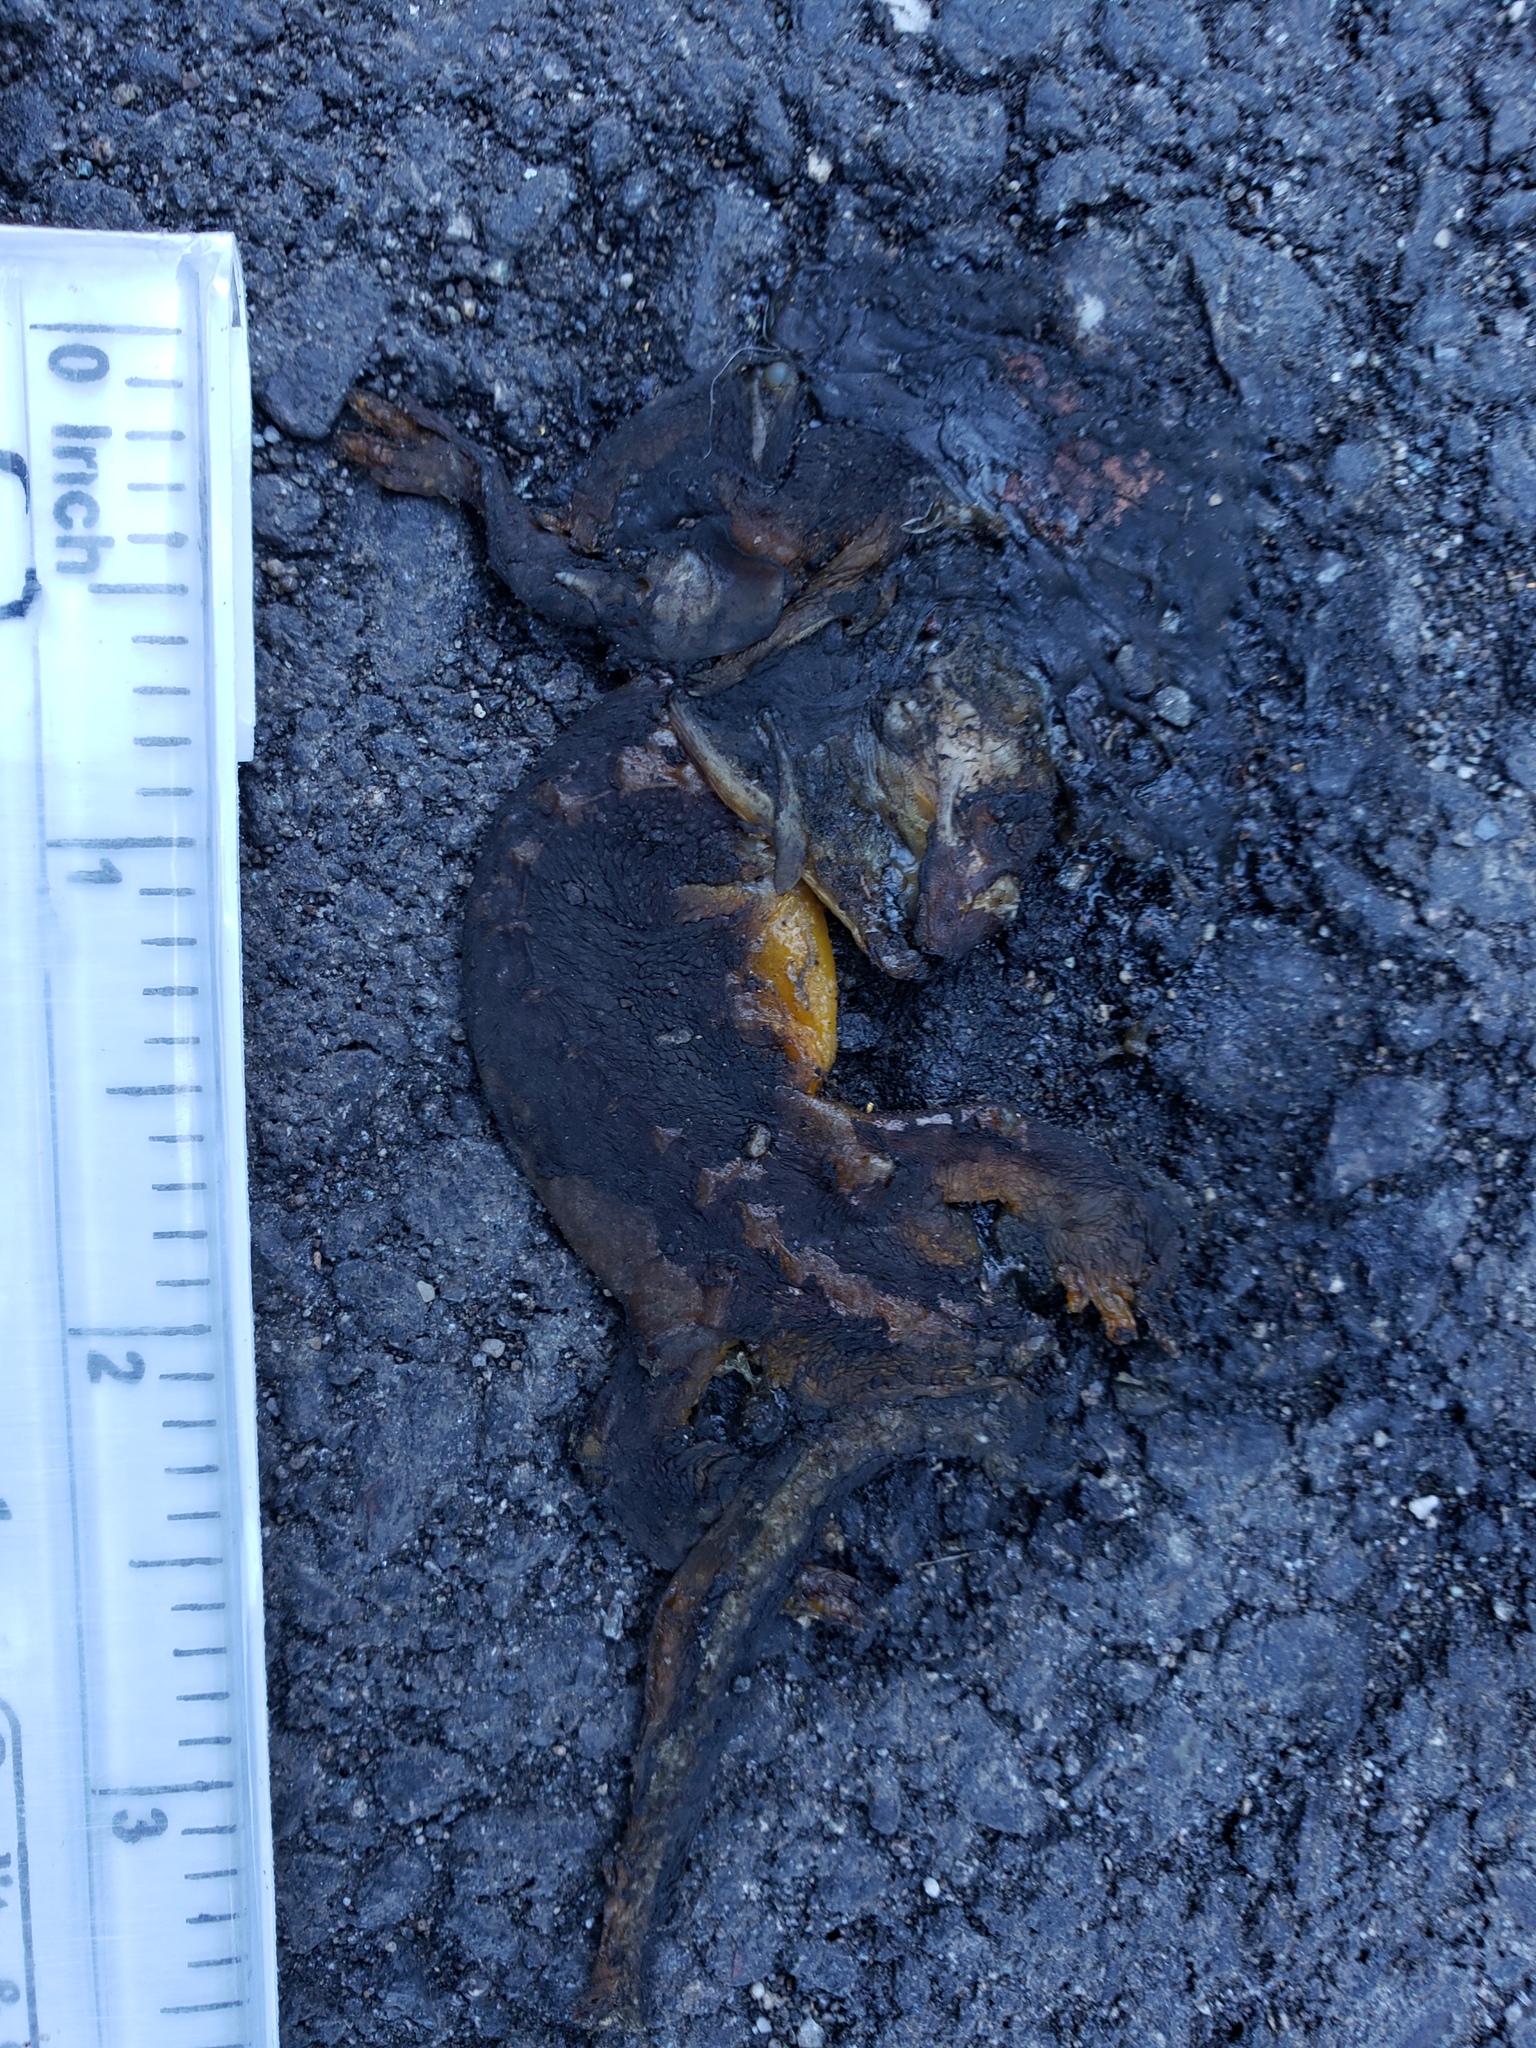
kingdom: Animalia
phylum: Chordata
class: Amphibia
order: Caudata
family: Salamandridae
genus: Taricha
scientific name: Taricha
